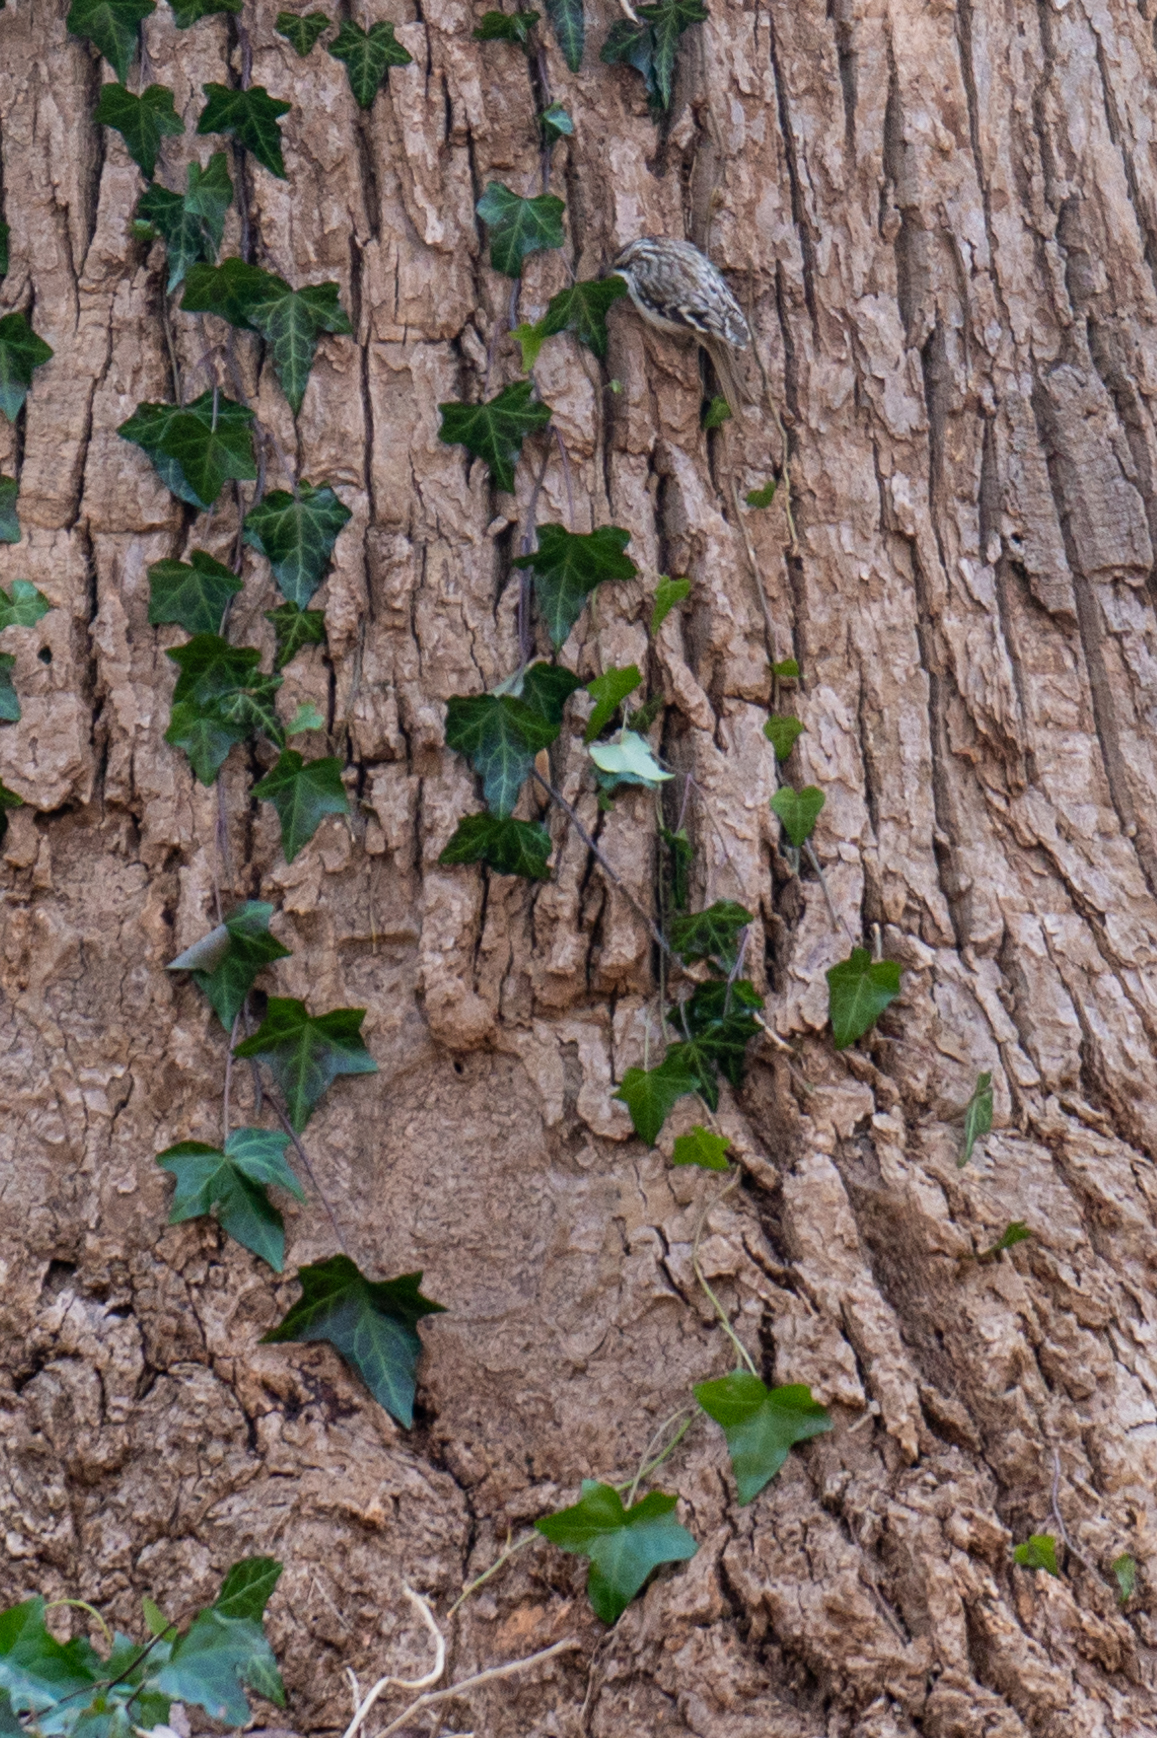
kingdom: Animalia
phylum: Chordata
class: Aves
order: Passeriformes
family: Certhiidae
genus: Certhia
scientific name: Certhia americana
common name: Brown creeper
